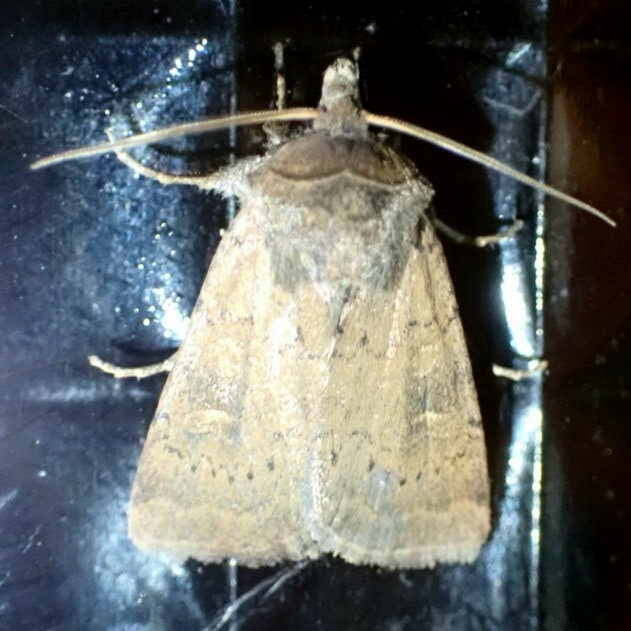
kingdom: Animalia
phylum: Arthropoda
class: Insecta
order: Lepidoptera
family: Noctuidae
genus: Xestia
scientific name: Xestia xanthographa
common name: Square-spot rustic
